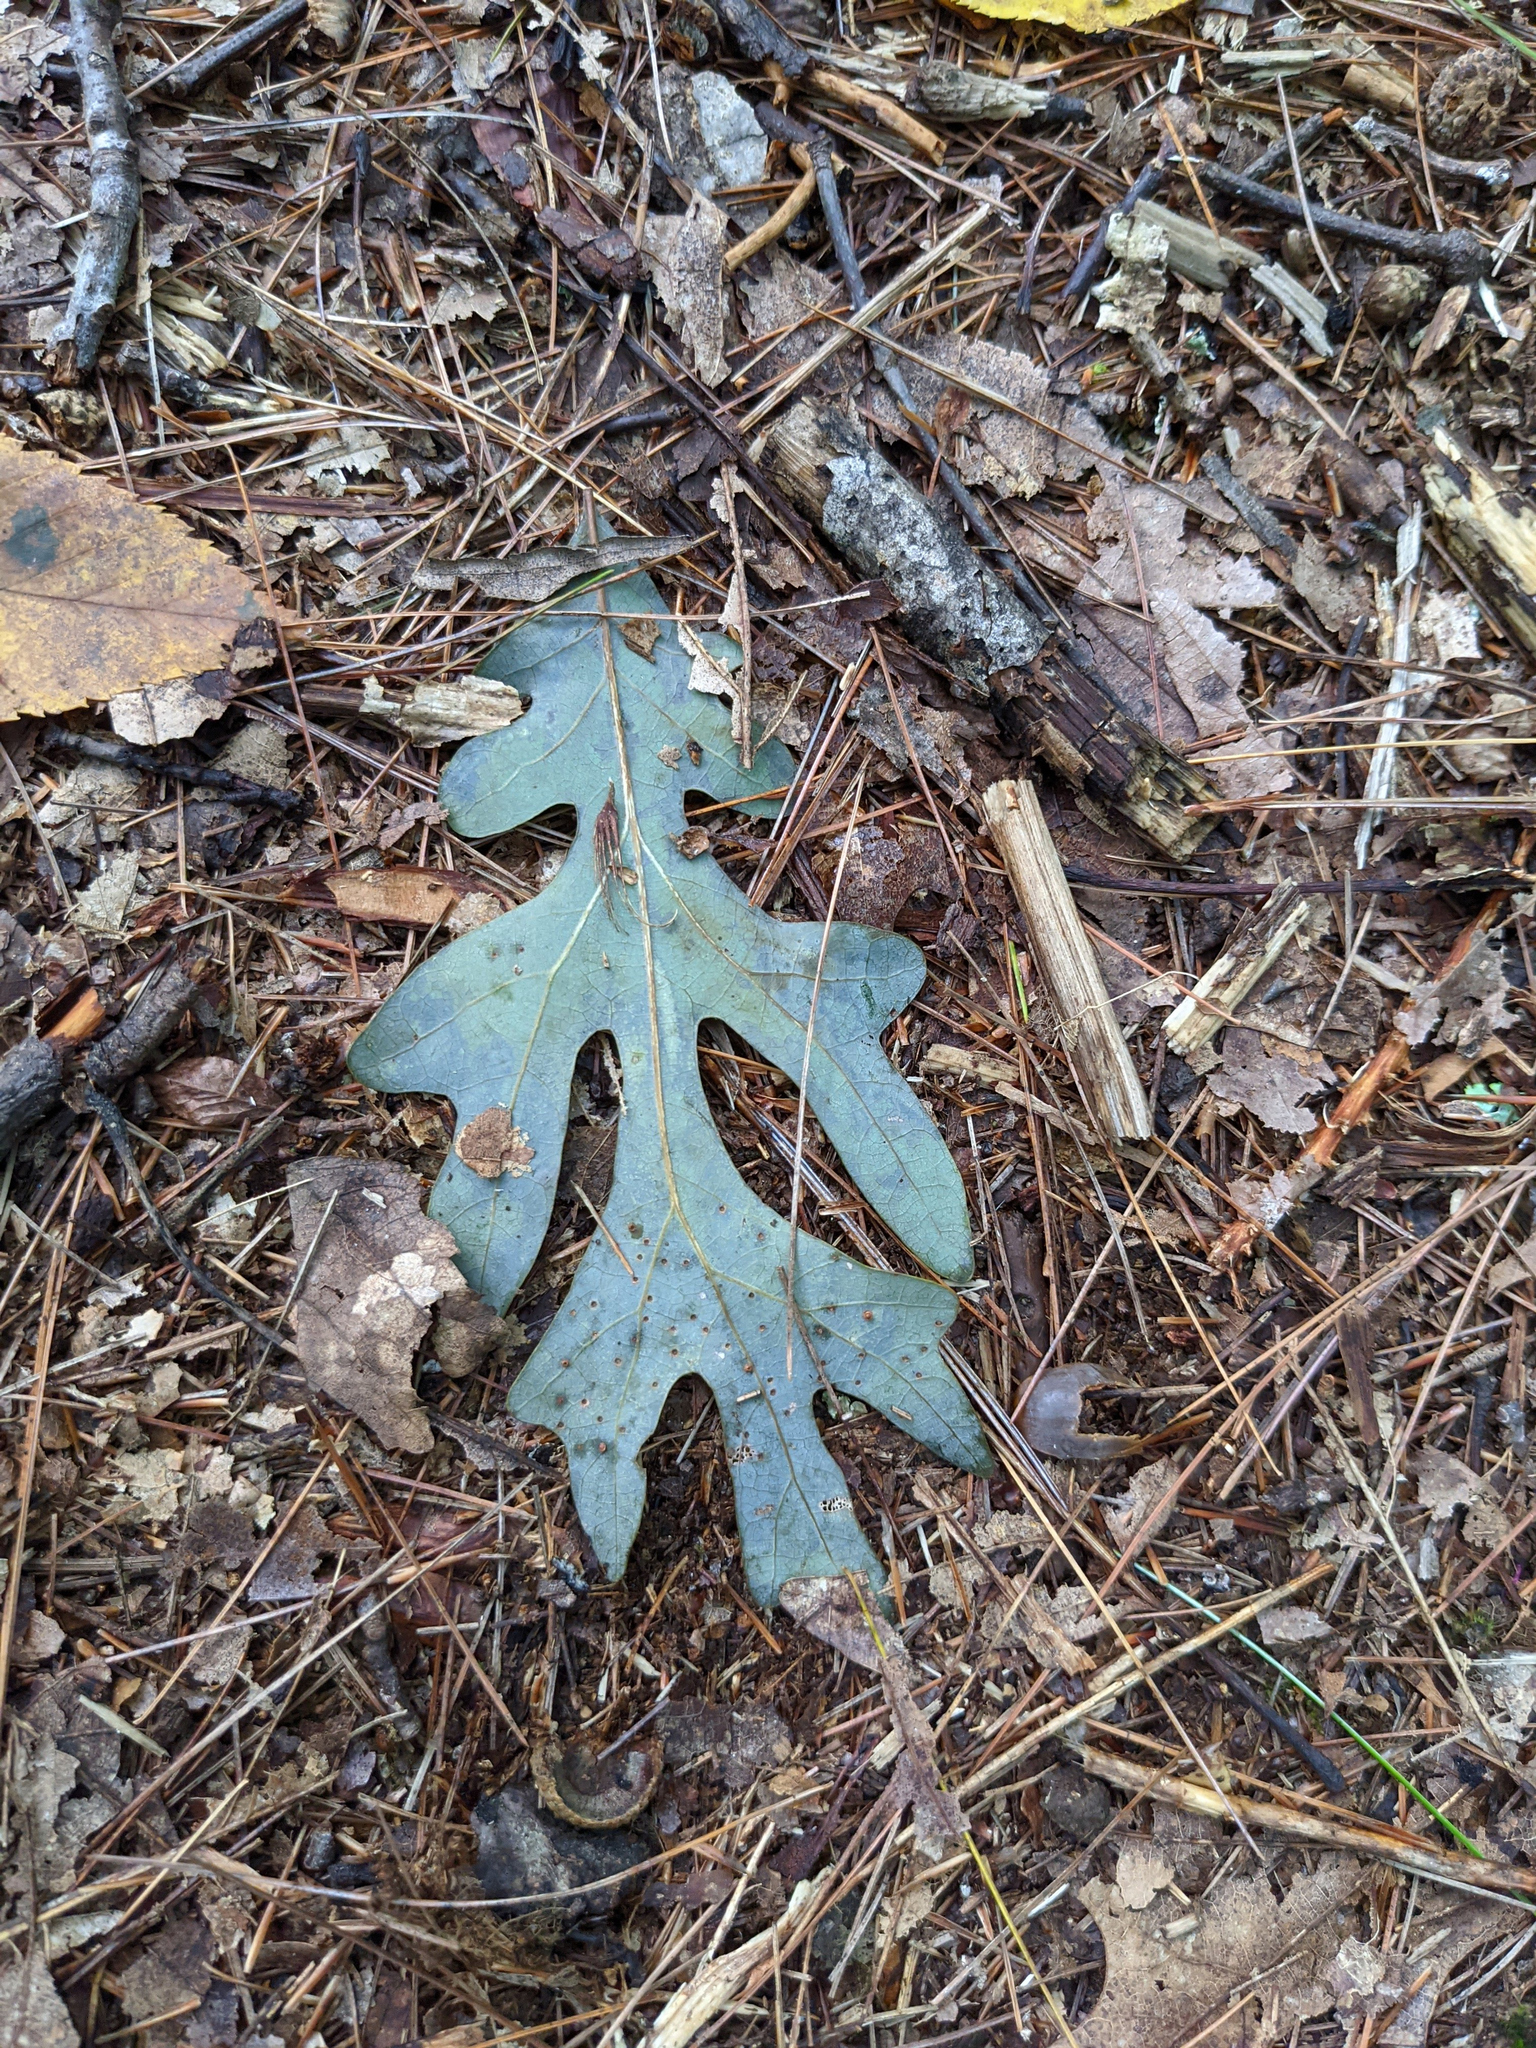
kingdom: Plantae
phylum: Tracheophyta
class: Magnoliopsida
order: Fagales
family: Fagaceae
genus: Quercus
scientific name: Quercus alba
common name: White oak
